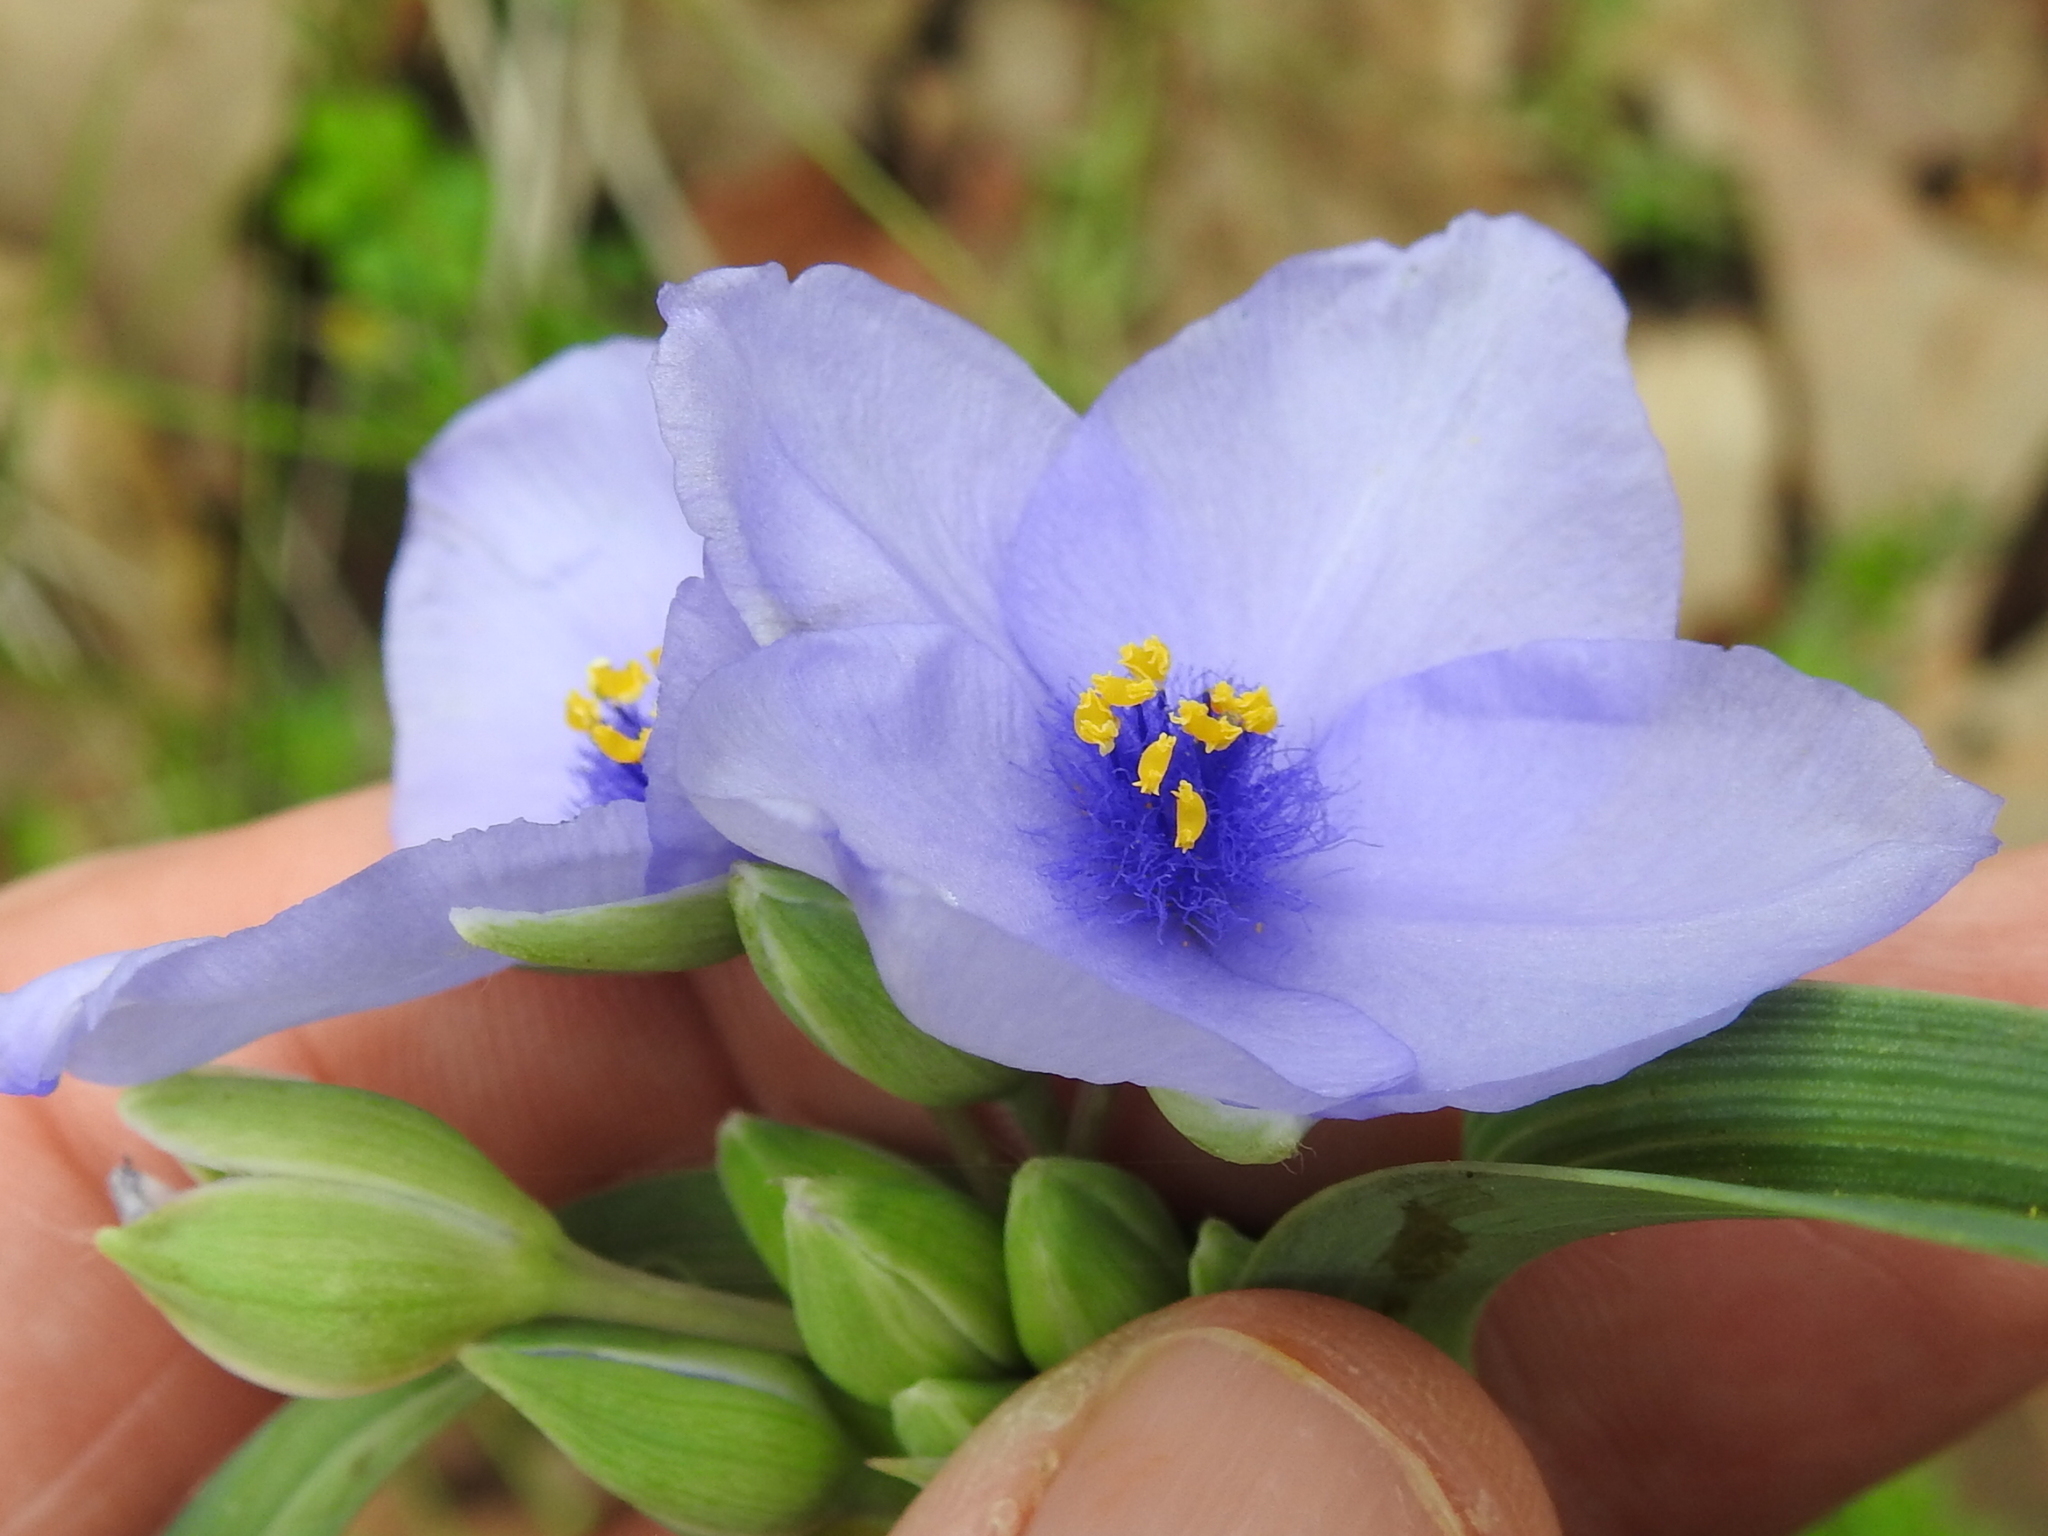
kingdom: Plantae
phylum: Tracheophyta
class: Liliopsida
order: Commelinales
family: Commelinaceae
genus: Tradescantia
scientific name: Tradescantia ohiensis
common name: Ohio spiderwort
